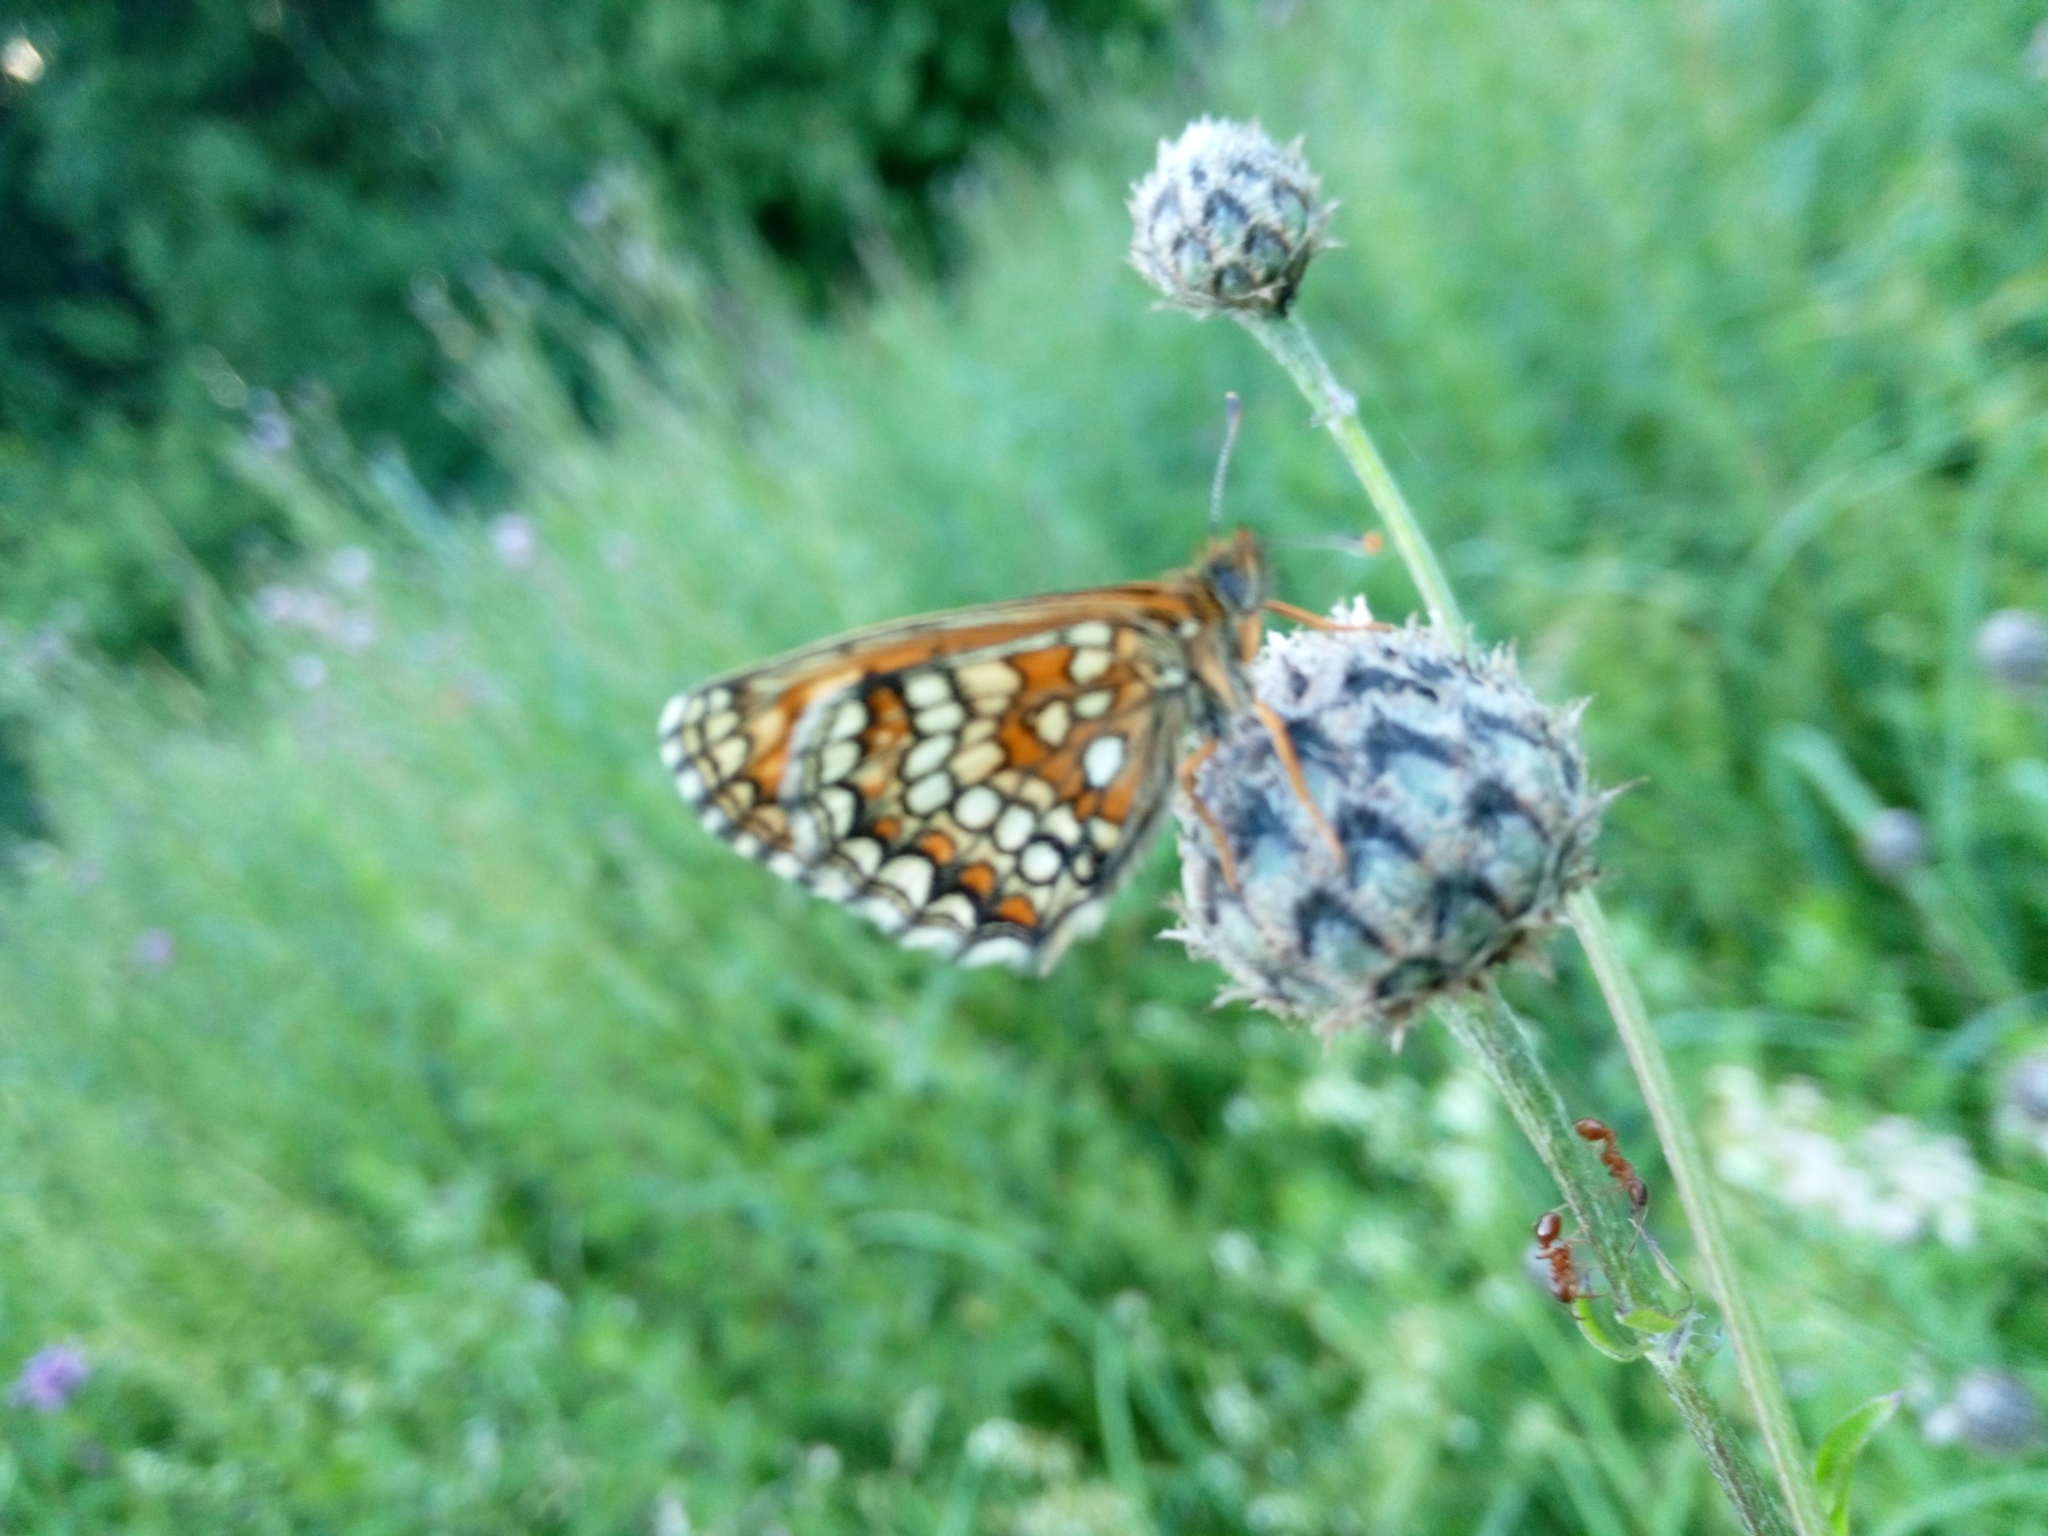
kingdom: Animalia
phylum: Arthropoda
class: Insecta
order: Lepidoptera
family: Nymphalidae
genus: Melitaea
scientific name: Melitaea athalia
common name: Heath fritillary
